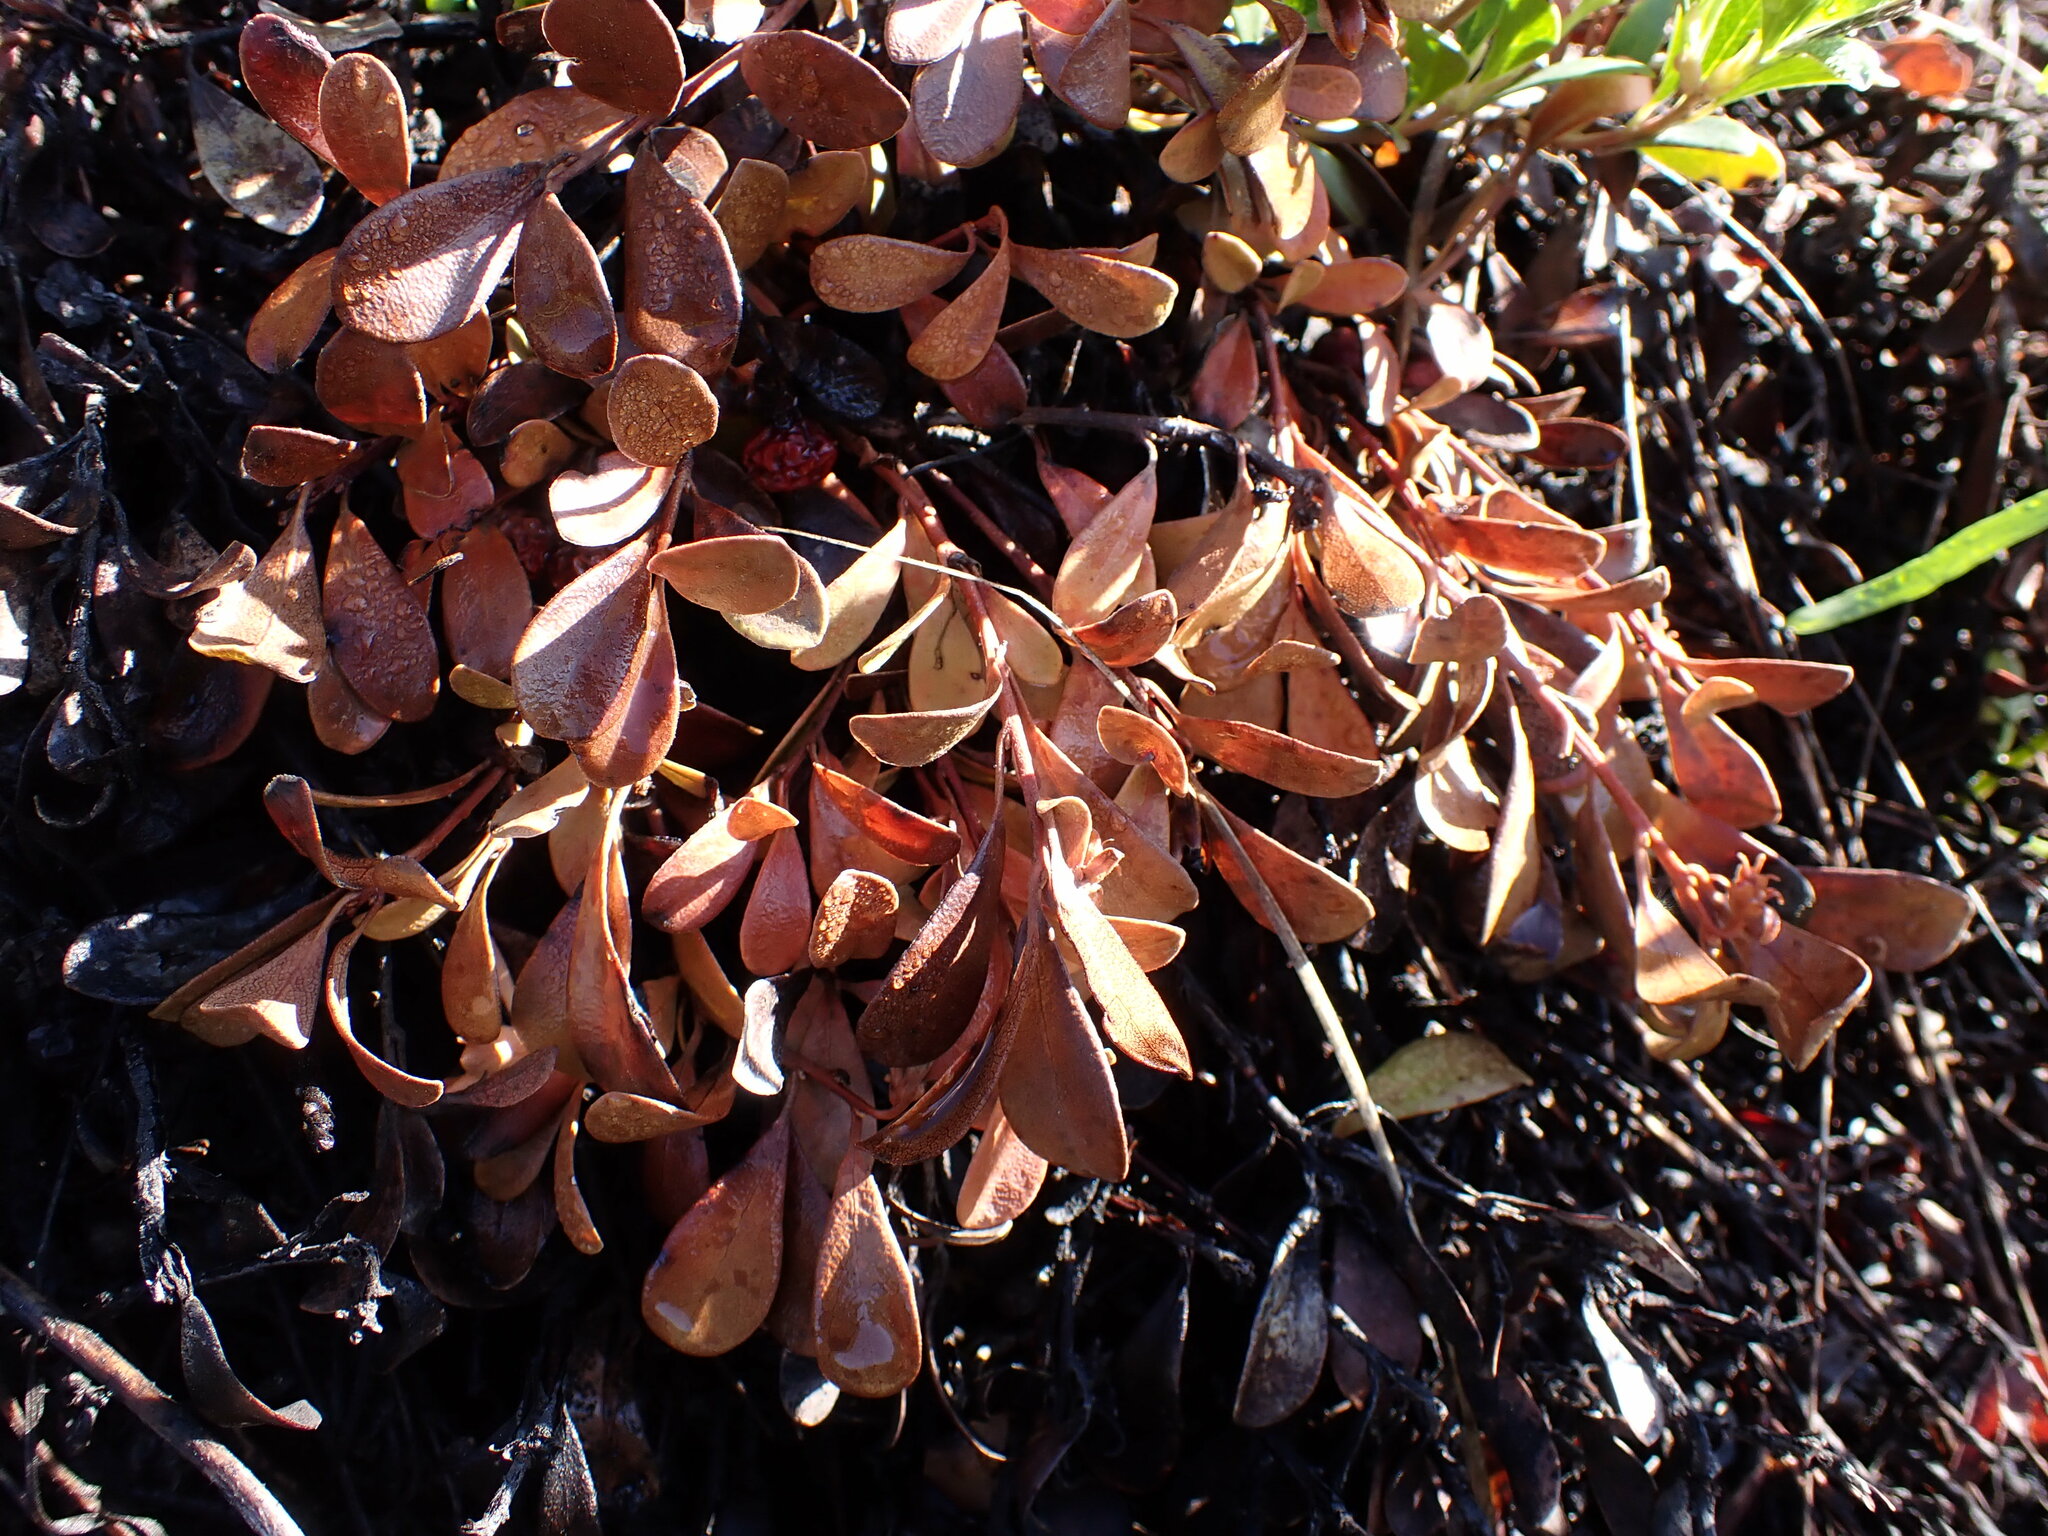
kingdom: Plantae
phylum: Tracheophyta
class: Magnoliopsida
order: Ericales
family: Ericaceae
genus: Arctostaphylos
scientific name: Arctostaphylos uva-ursi
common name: Bearberry
